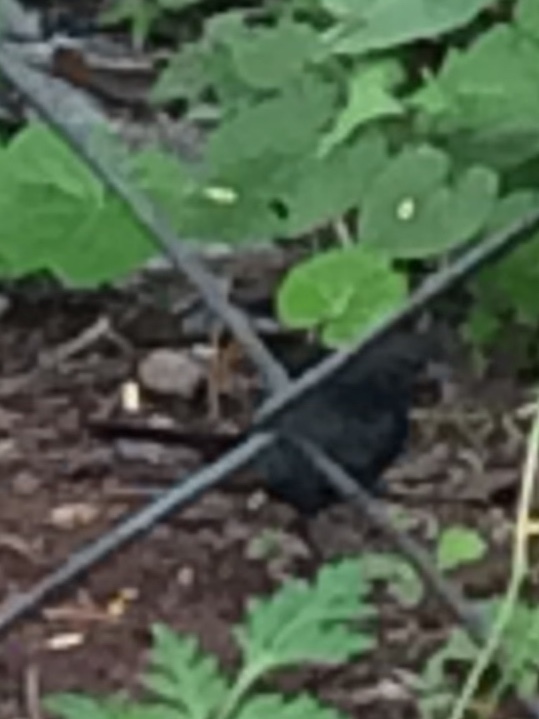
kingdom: Animalia
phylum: Chordata
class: Aves
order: Passeriformes
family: Muscicapidae
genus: Saxicoloides
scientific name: Saxicoloides fulicatus
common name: Indian robin
